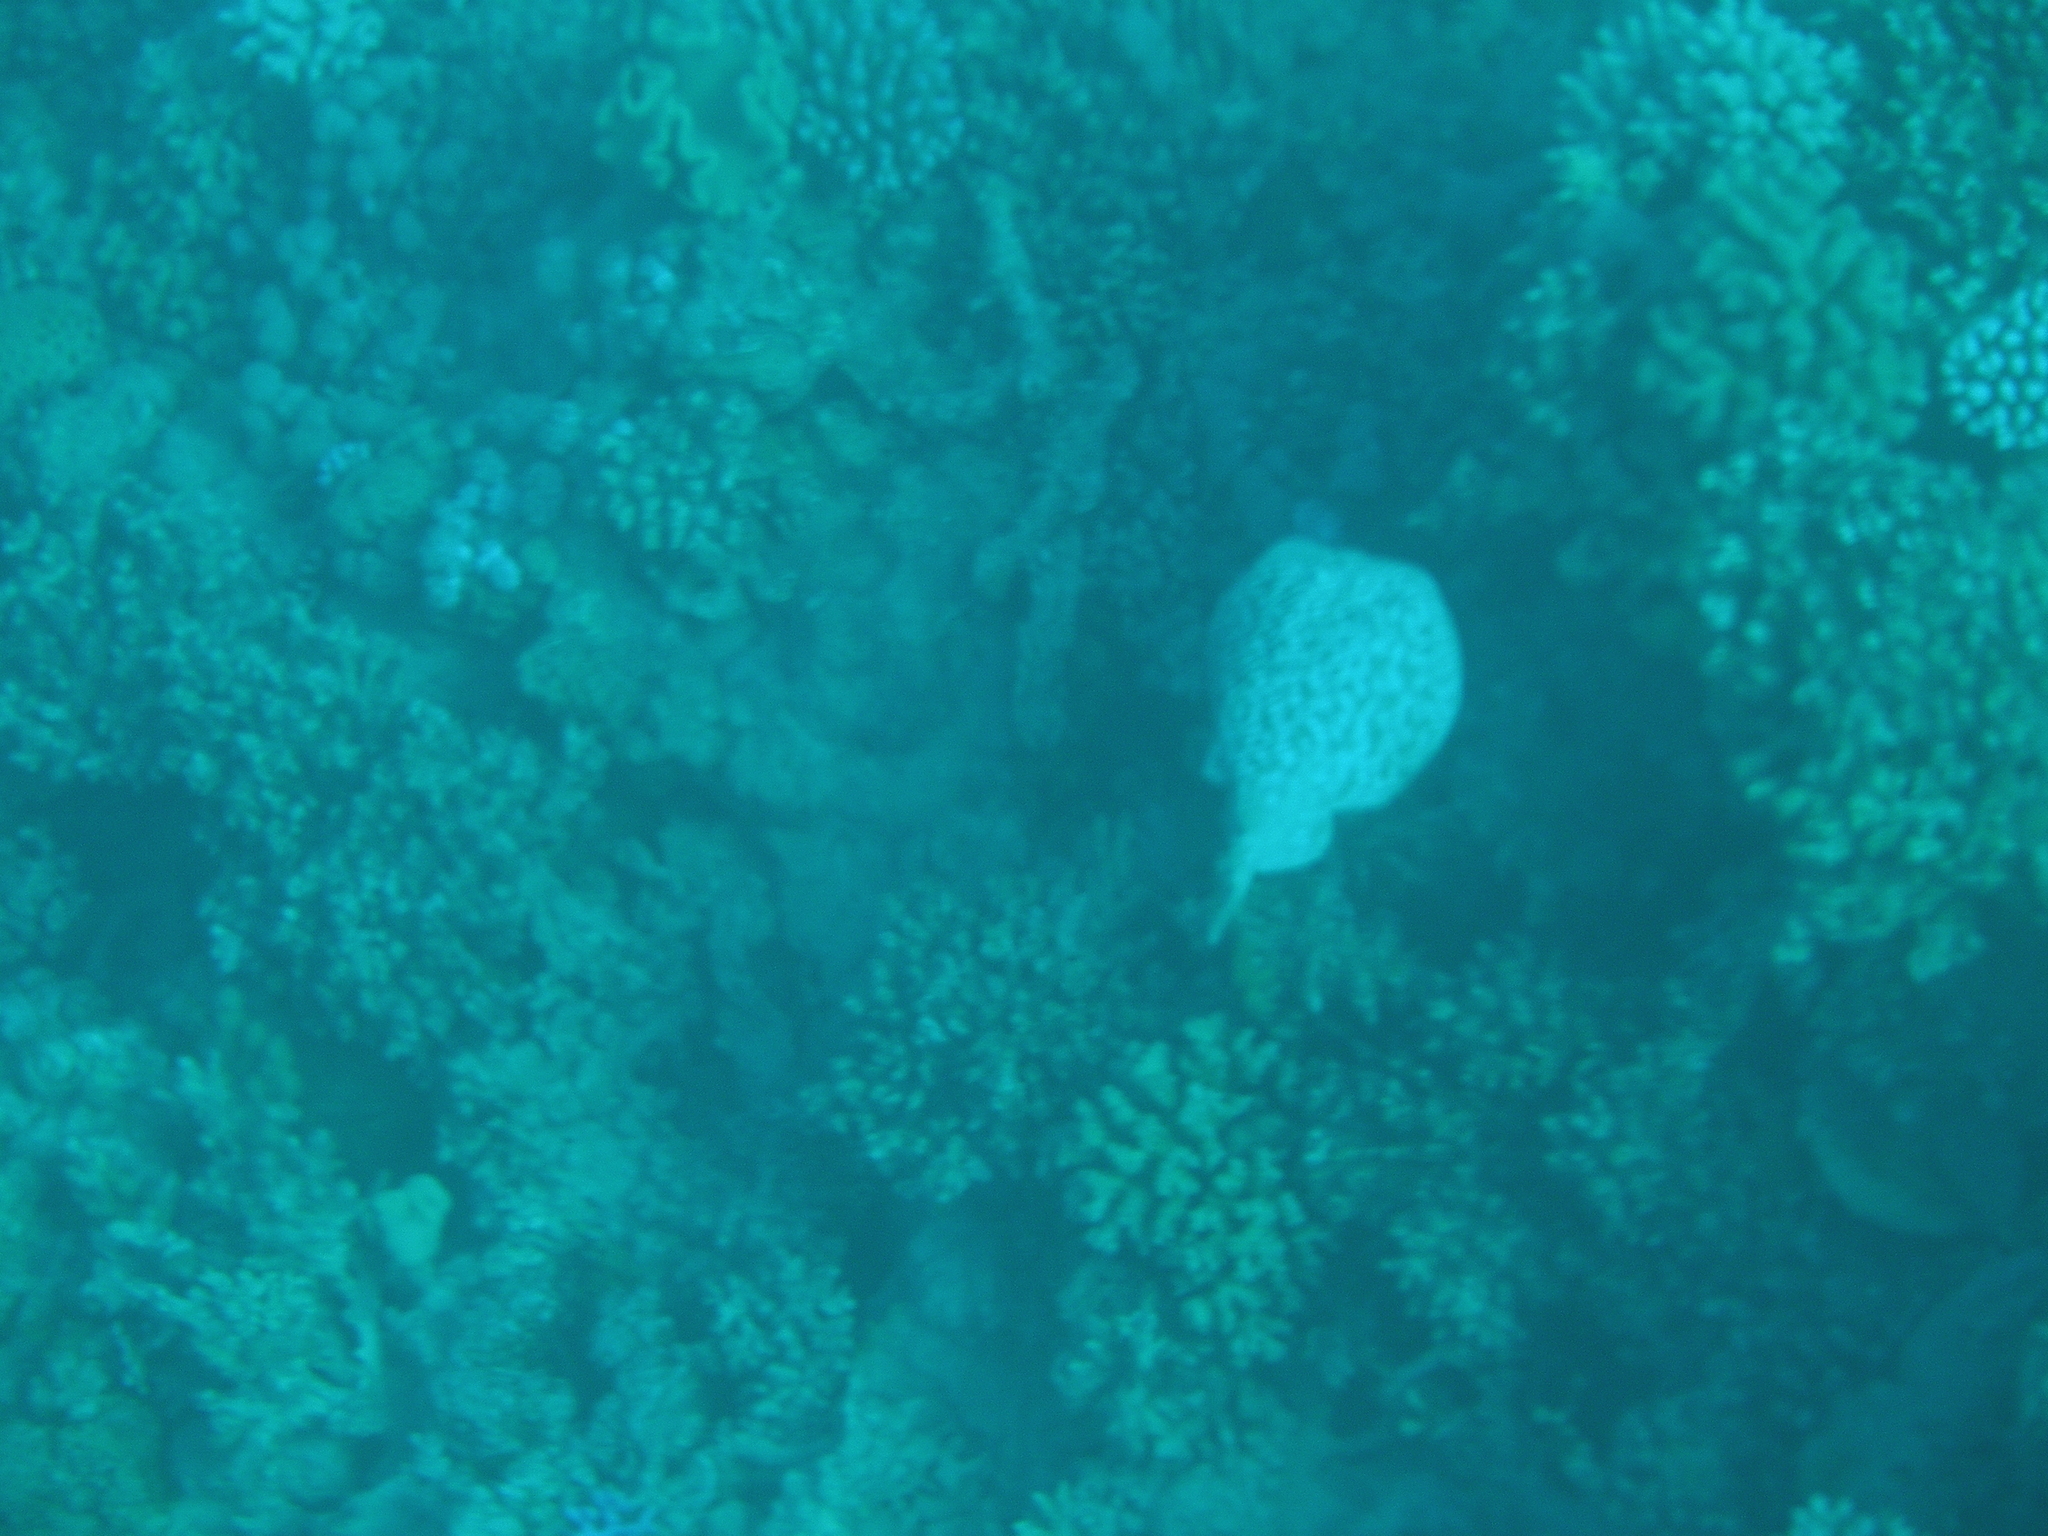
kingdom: Animalia
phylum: Chordata
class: Elasmobranchii
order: Torpediniformes
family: Torpedinidae
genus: Torpedo
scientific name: Torpedo panthera
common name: Leopard torpedo
